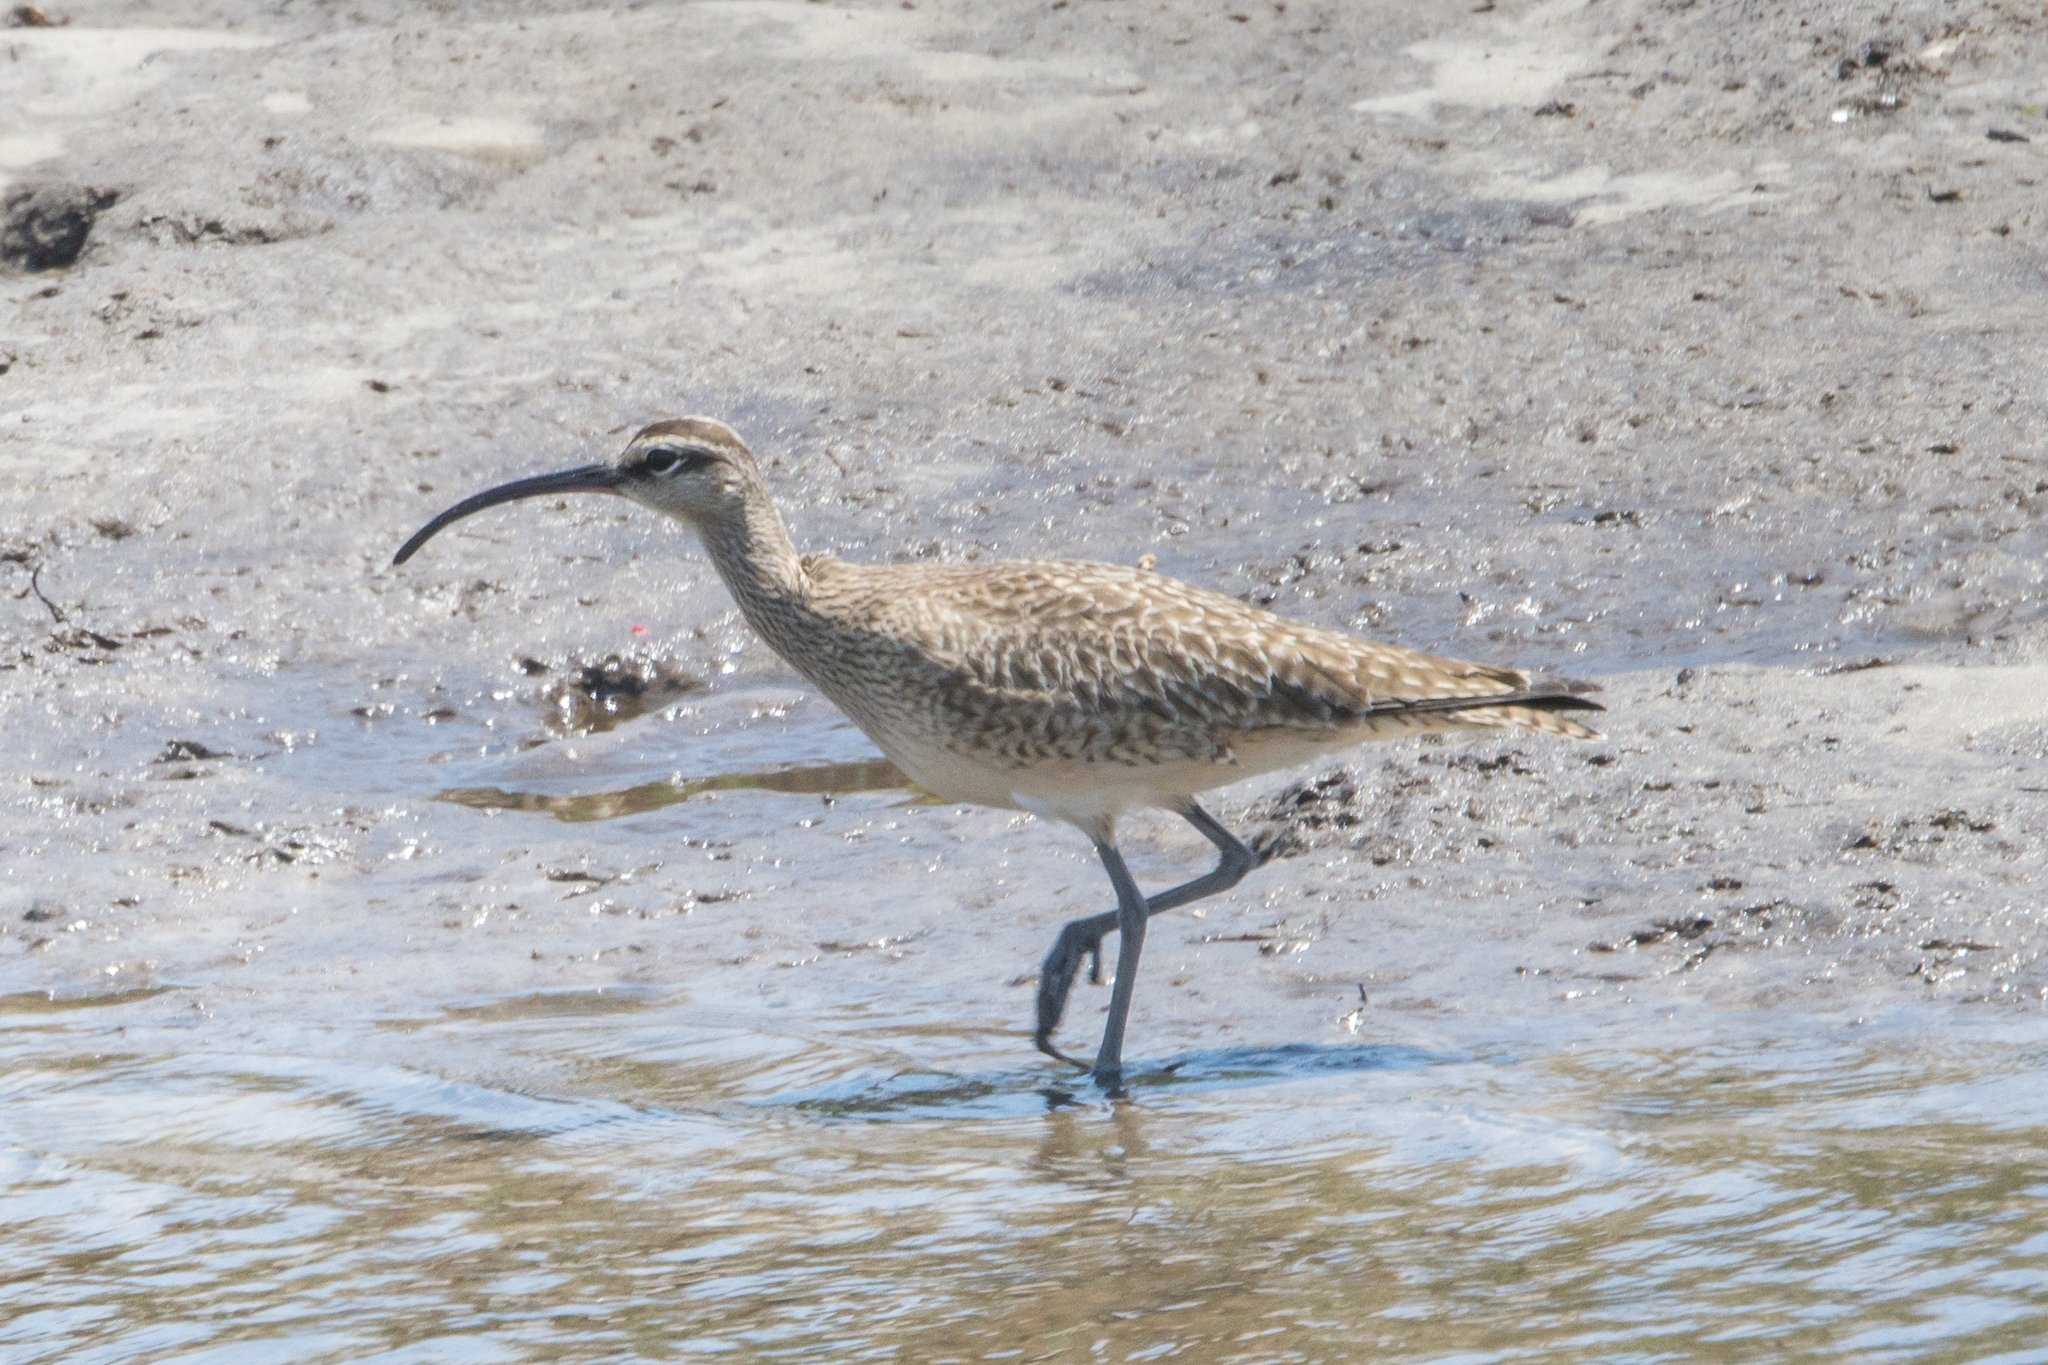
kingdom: Animalia
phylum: Chordata
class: Aves
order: Charadriiformes
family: Scolopacidae
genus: Numenius
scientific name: Numenius phaeopus
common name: Whimbrel
